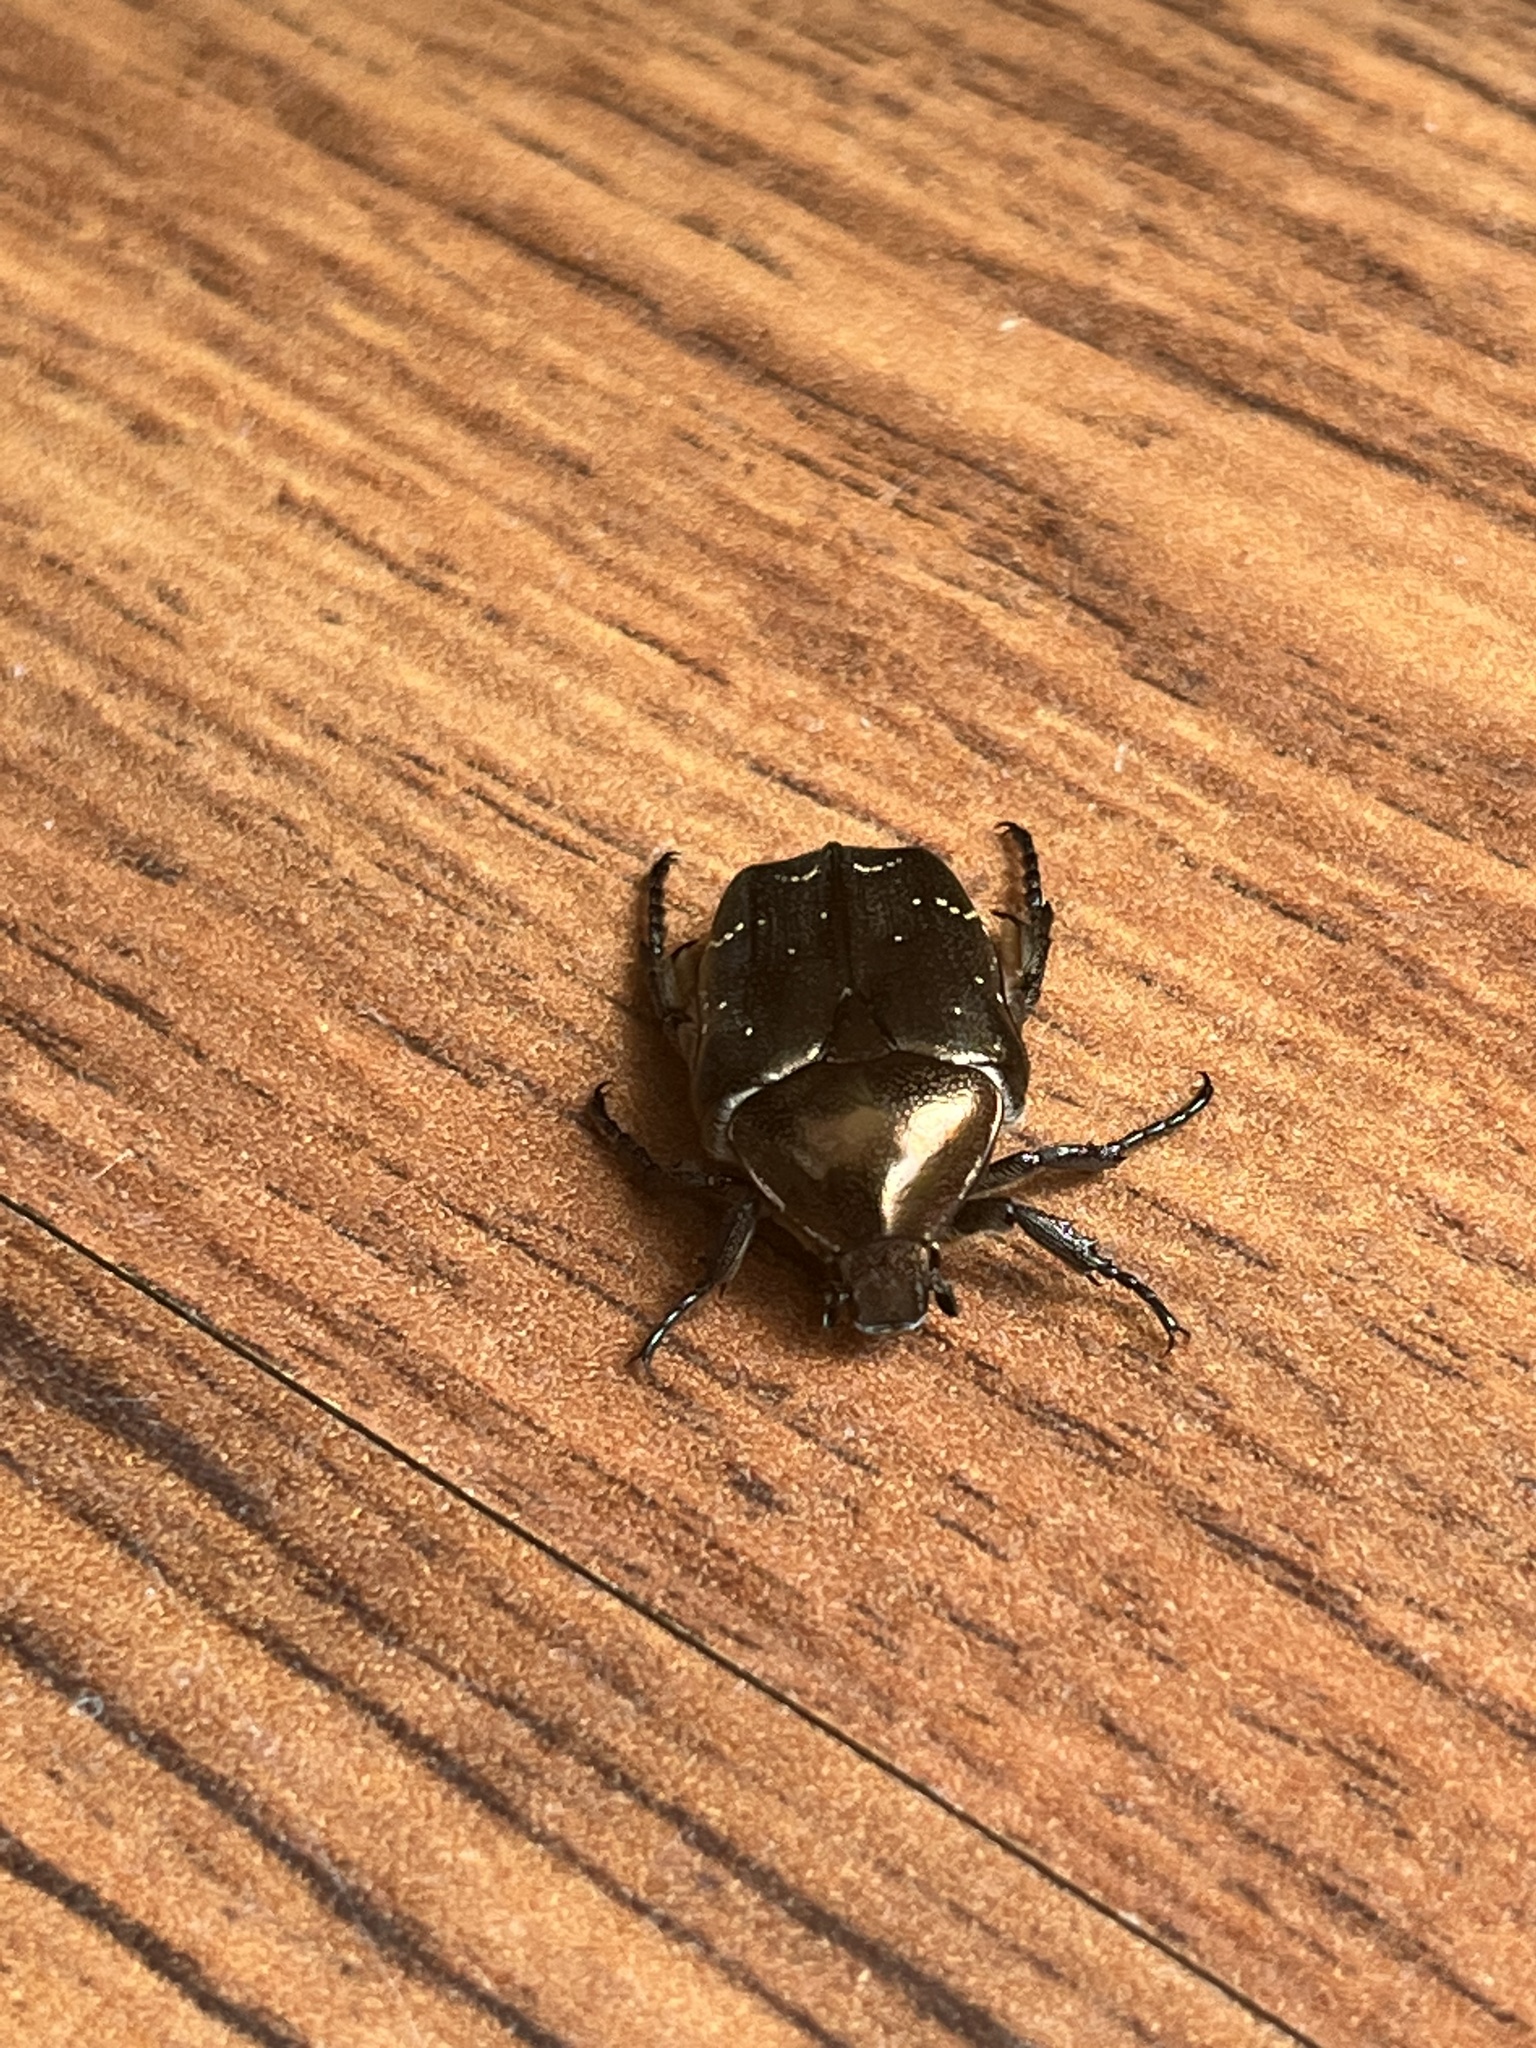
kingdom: Animalia
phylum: Arthropoda
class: Insecta
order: Coleoptera
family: Scarabaeidae
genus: Protaetia
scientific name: Protaetia cuprea
